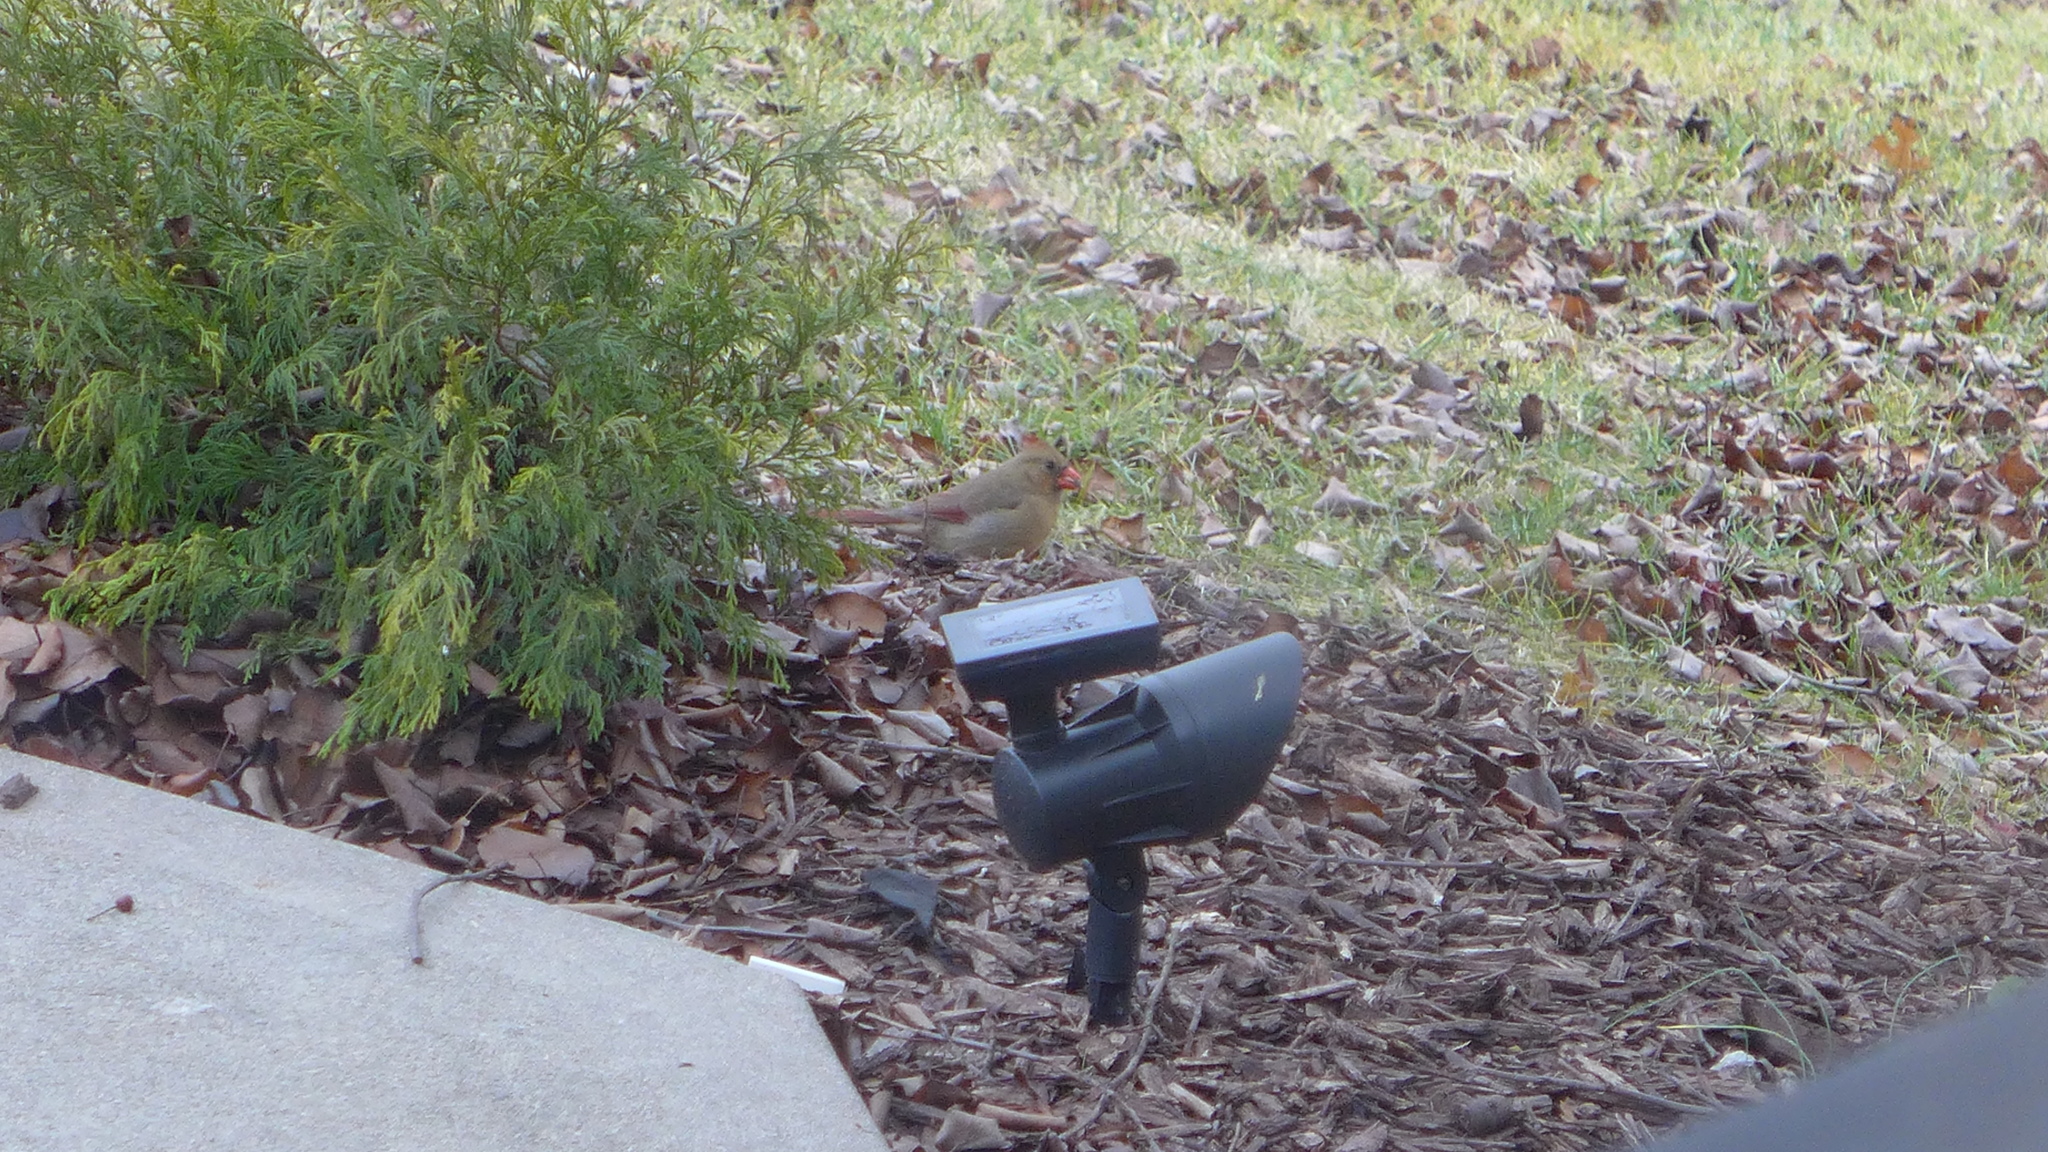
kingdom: Animalia
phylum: Chordata
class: Aves
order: Passeriformes
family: Cardinalidae
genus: Cardinalis
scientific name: Cardinalis cardinalis
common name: Northern cardinal
